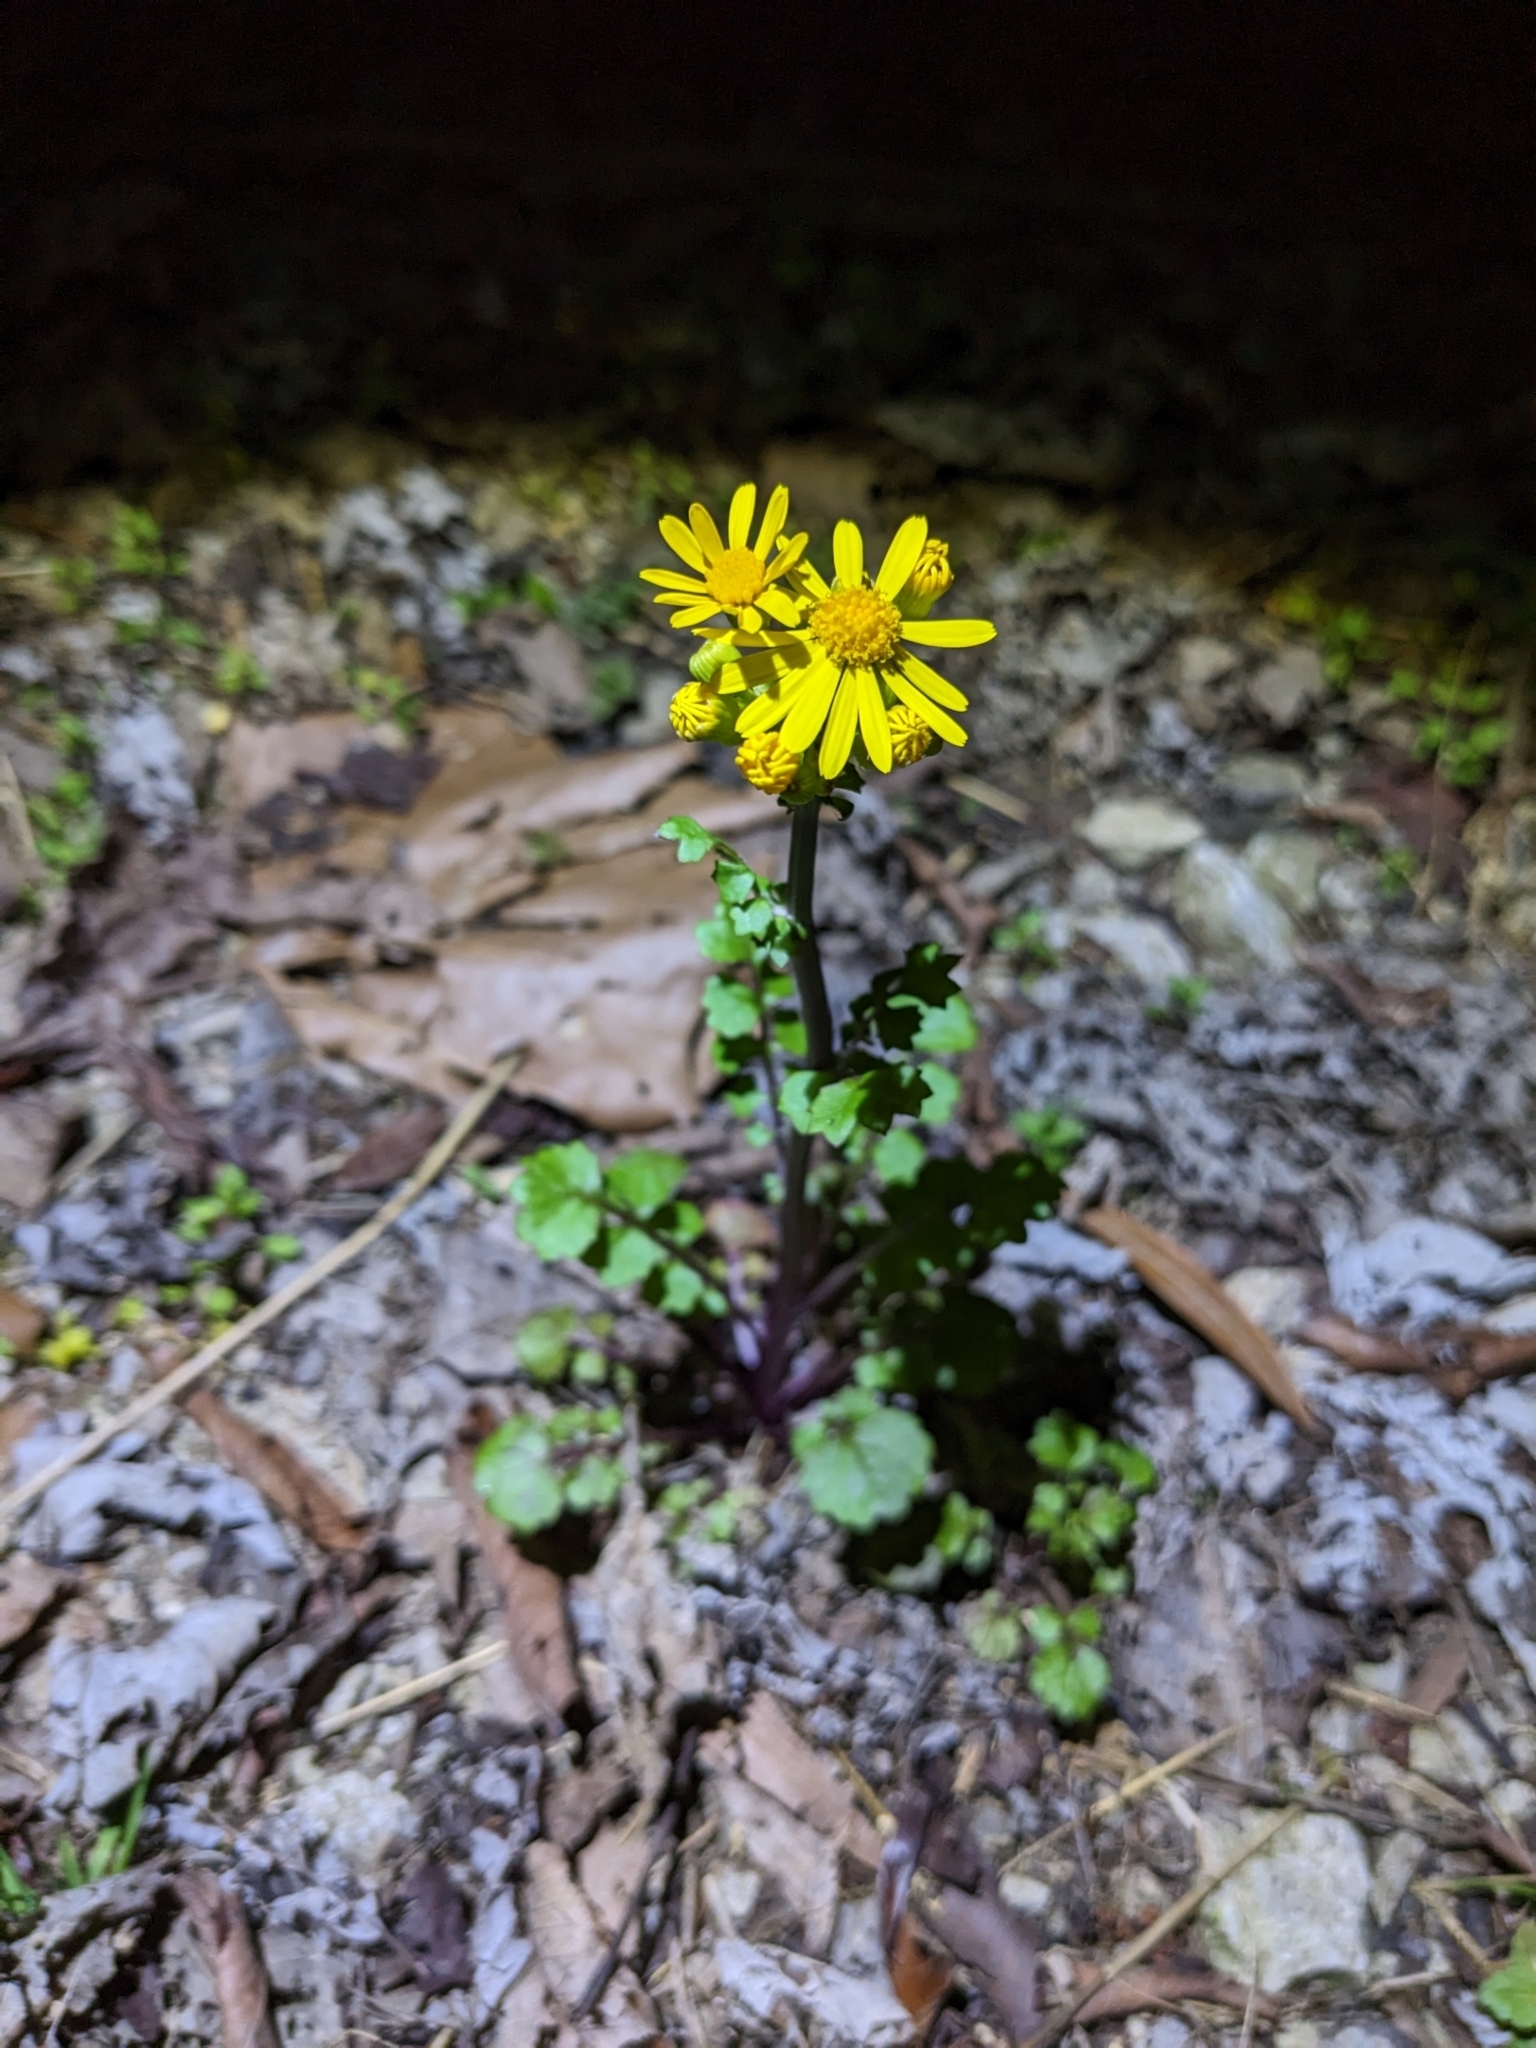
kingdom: Plantae
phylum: Tracheophyta
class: Magnoliopsida
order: Asterales
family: Asteraceae
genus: Packera
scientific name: Packera glabella
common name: Butterweed
